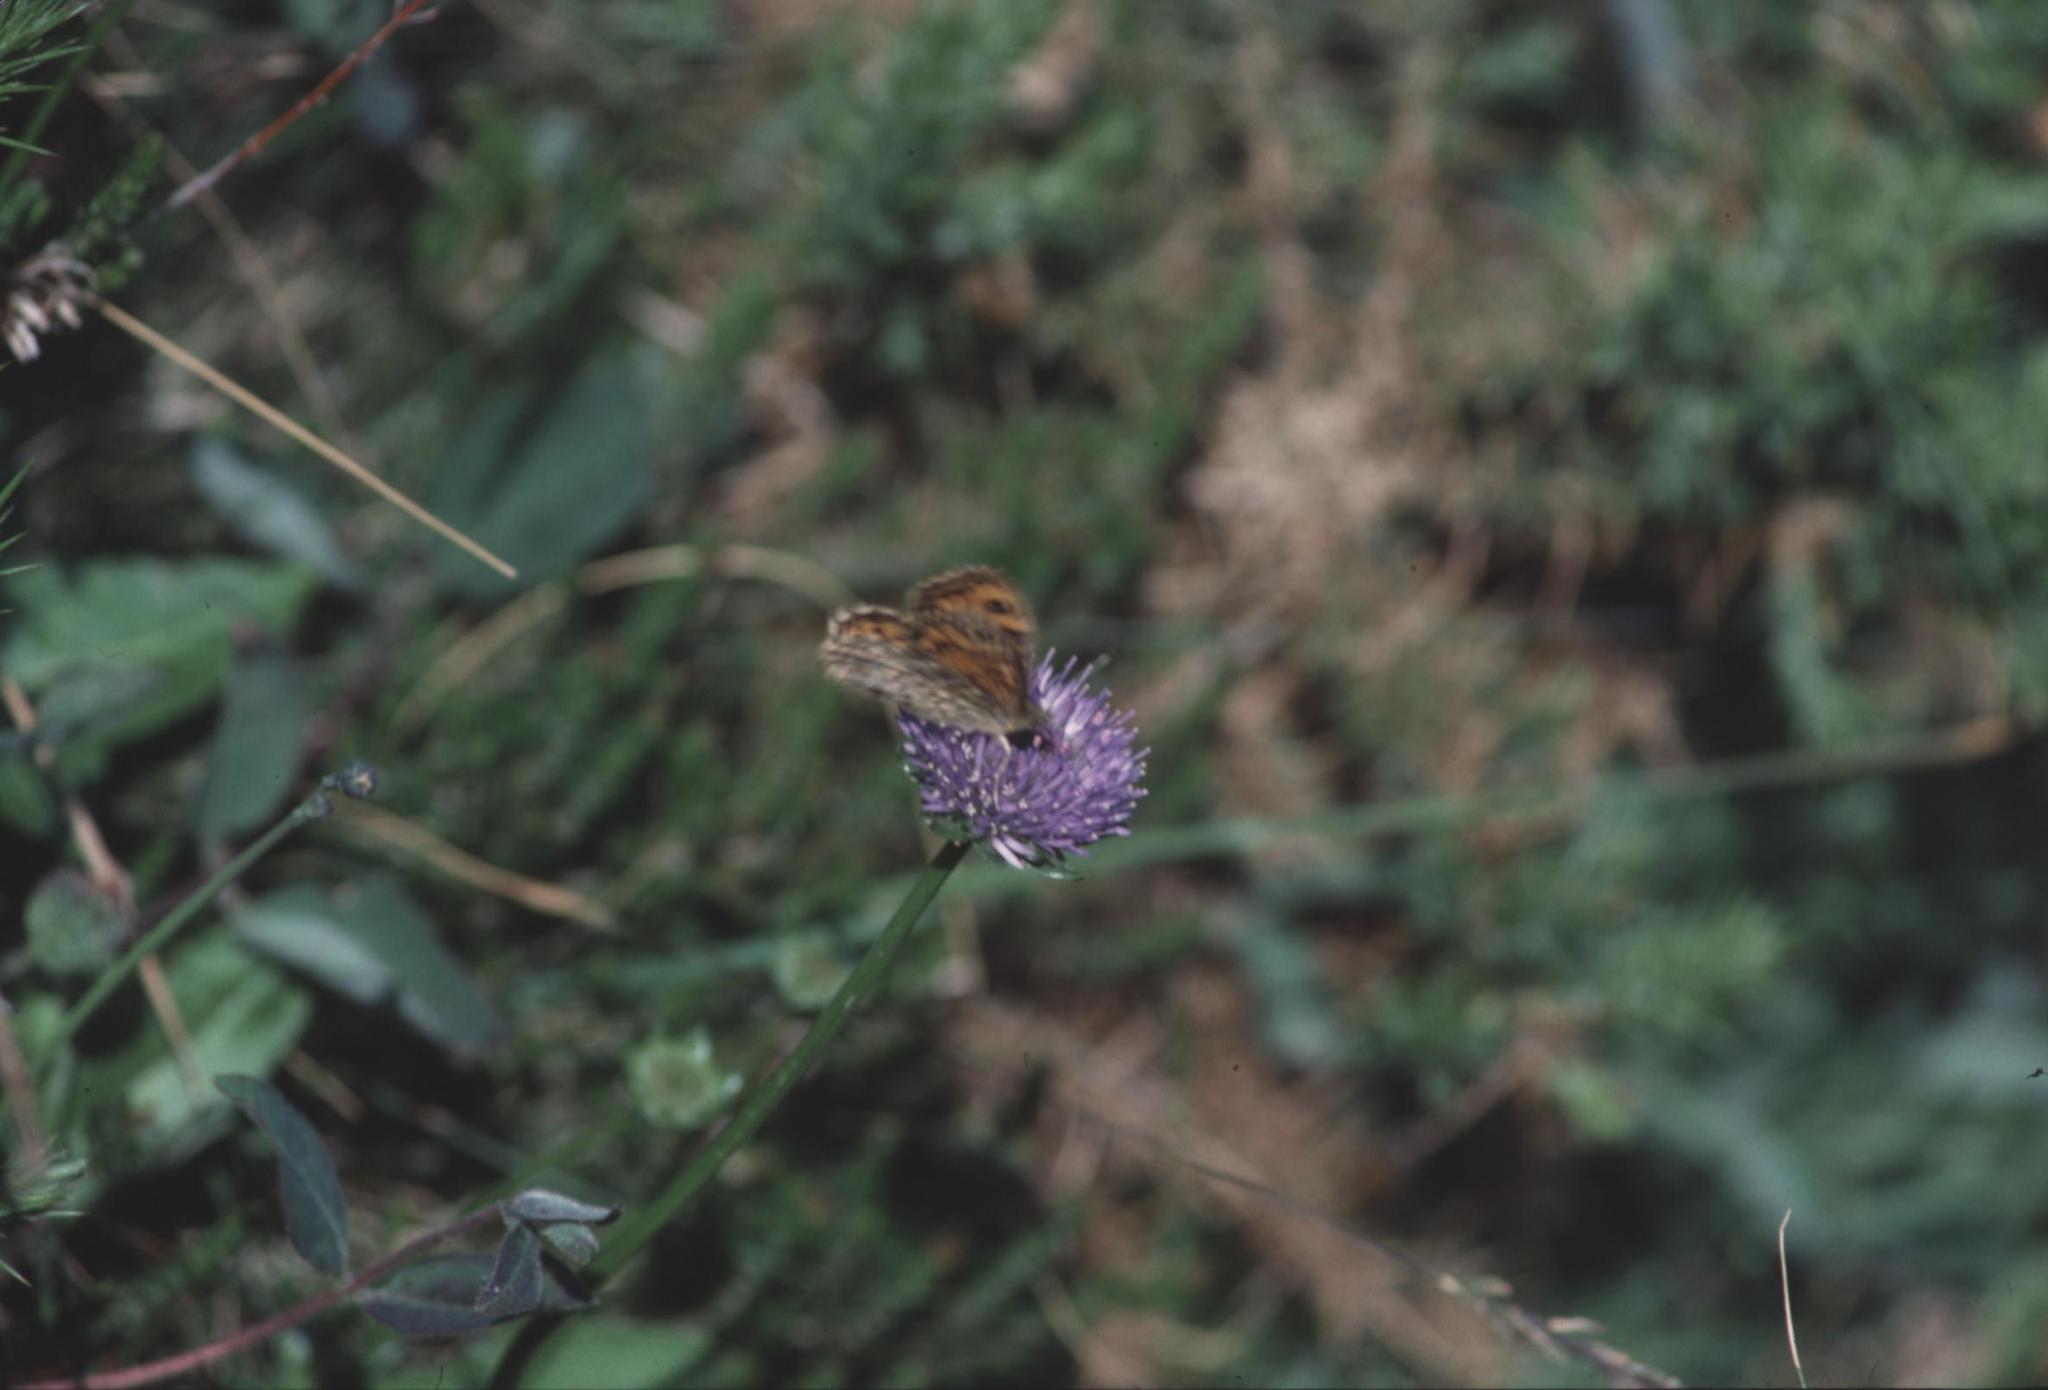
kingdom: Animalia
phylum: Arthropoda
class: Insecta
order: Lepidoptera
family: Nymphalidae
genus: Pararge
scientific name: Pararge Lasiommata megera
